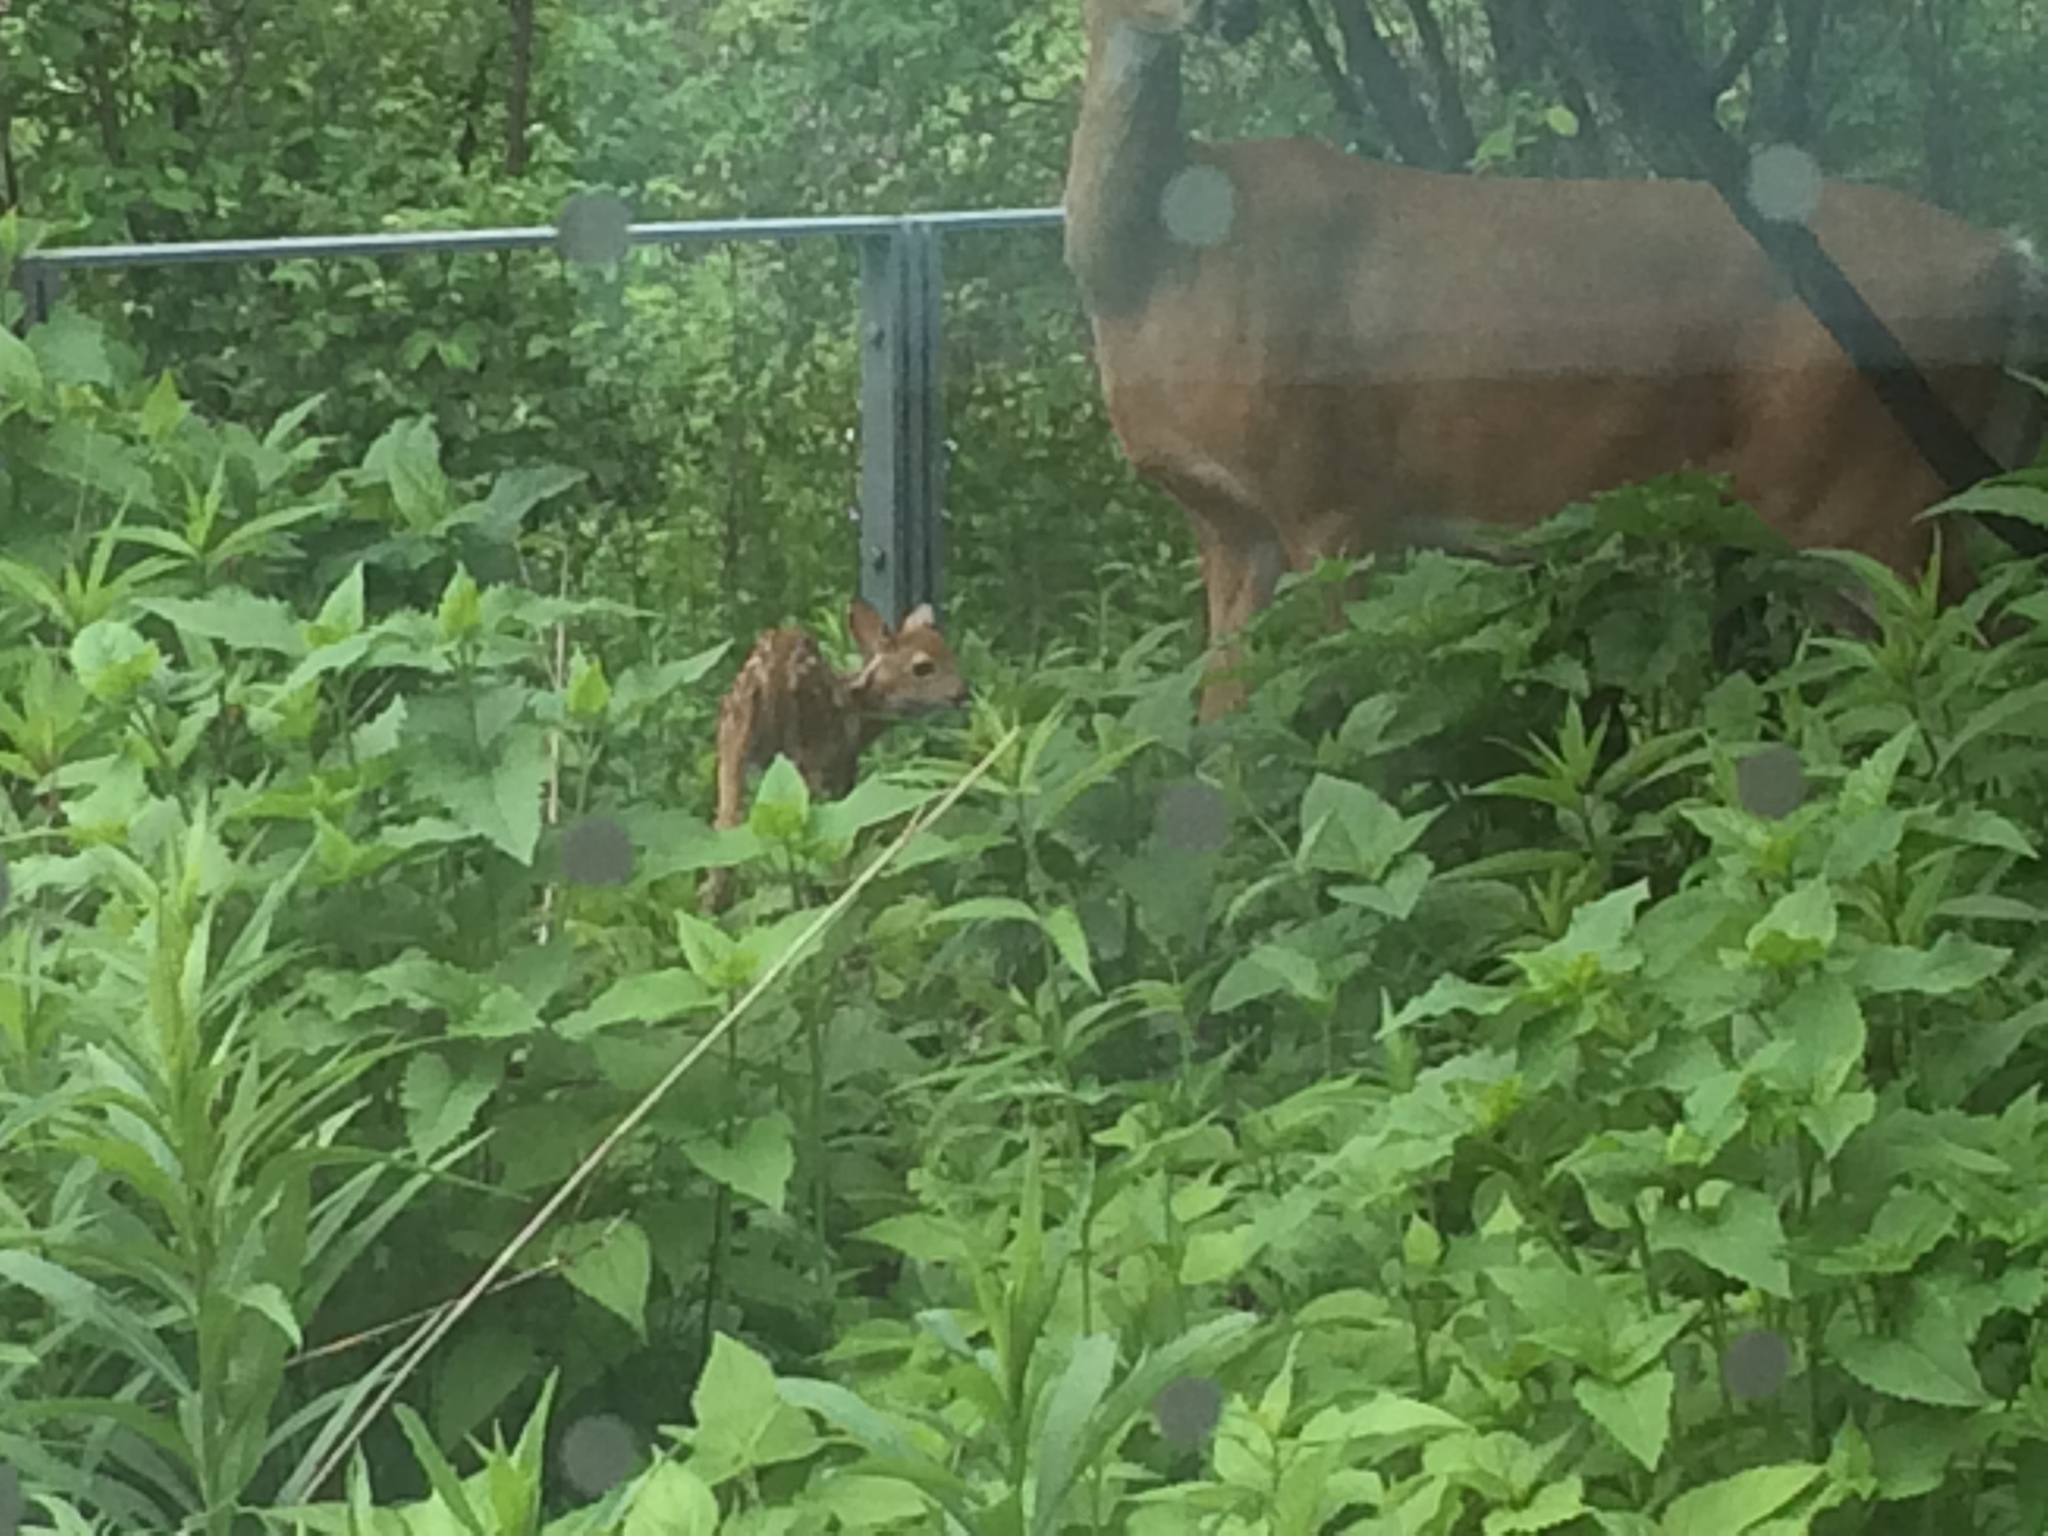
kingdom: Animalia
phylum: Chordata
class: Mammalia
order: Artiodactyla
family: Cervidae
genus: Odocoileus
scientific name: Odocoileus virginianus
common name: White-tailed deer
